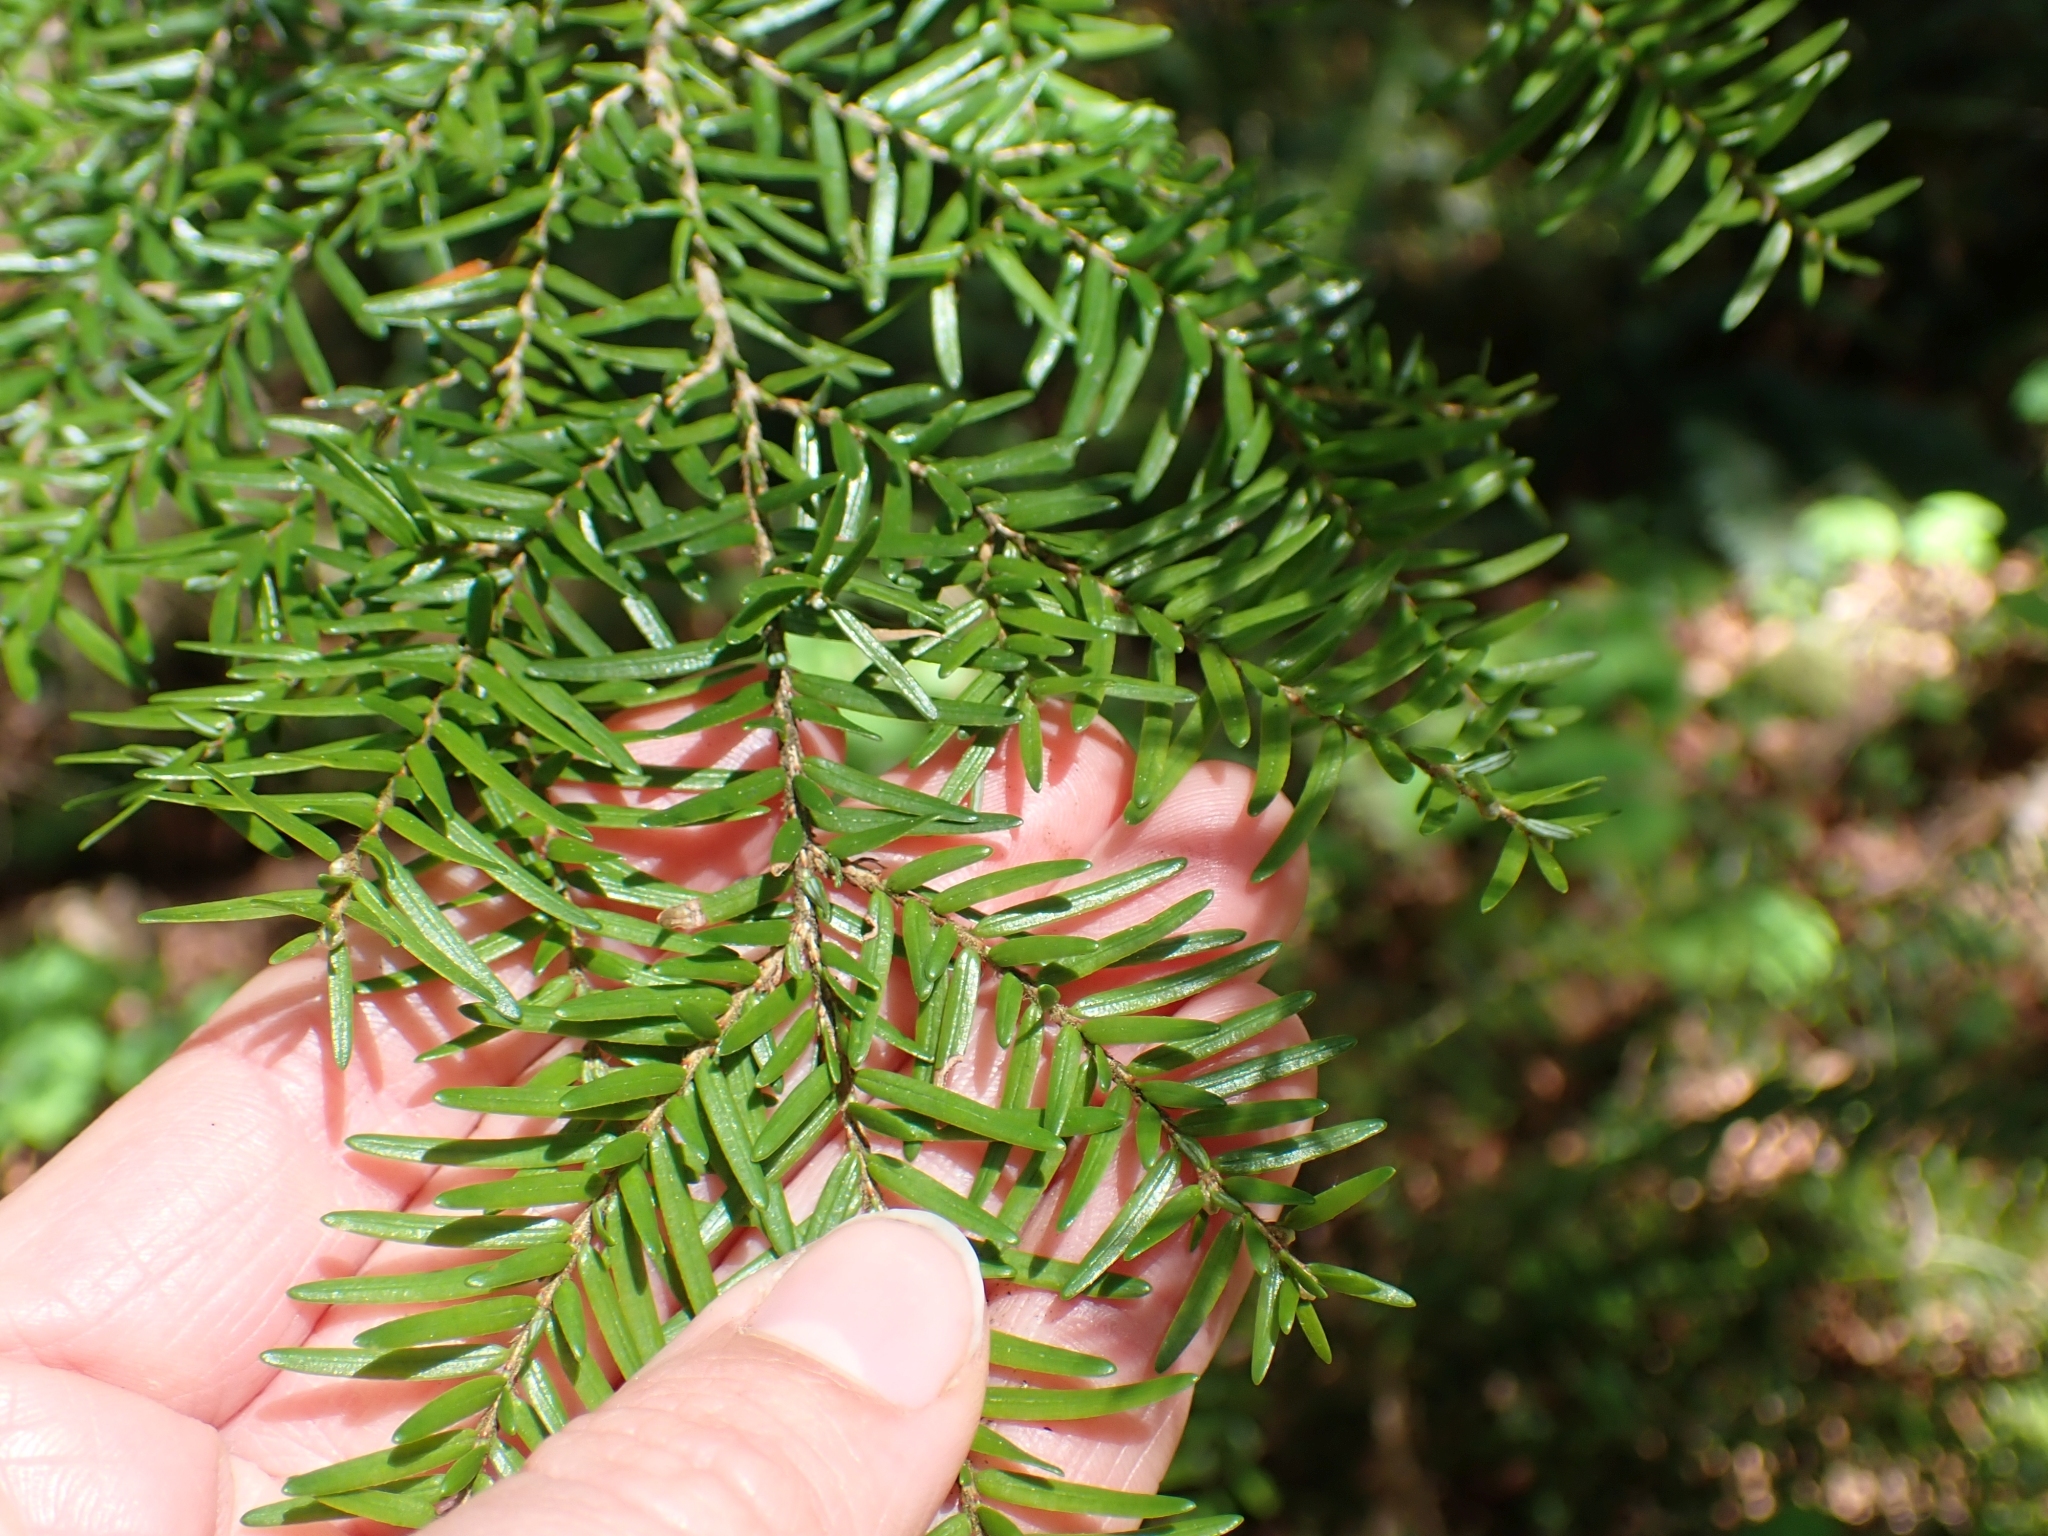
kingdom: Plantae
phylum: Tracheophyta
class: Pinopsida
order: Pinales
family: Pinaceae
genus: Tsuga
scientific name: Tsuga heterophylla
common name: Western hemlock
